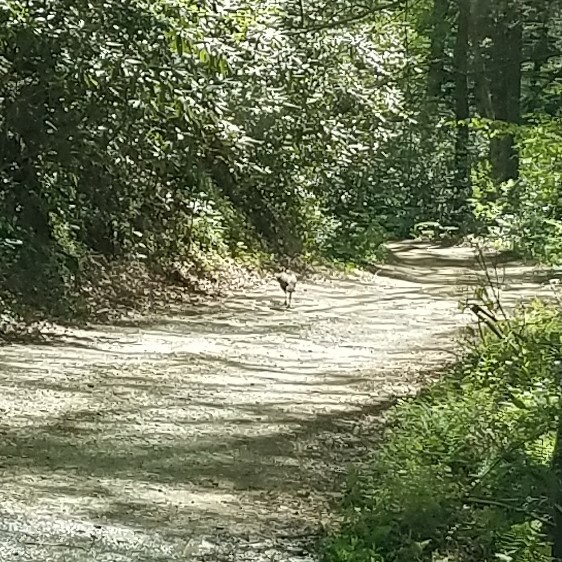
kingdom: Animalia
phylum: Chordata
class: Aves
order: Galliformes
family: Phasianidae
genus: Meleagris
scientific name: Meleagris gallopavo
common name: Wild turkey
